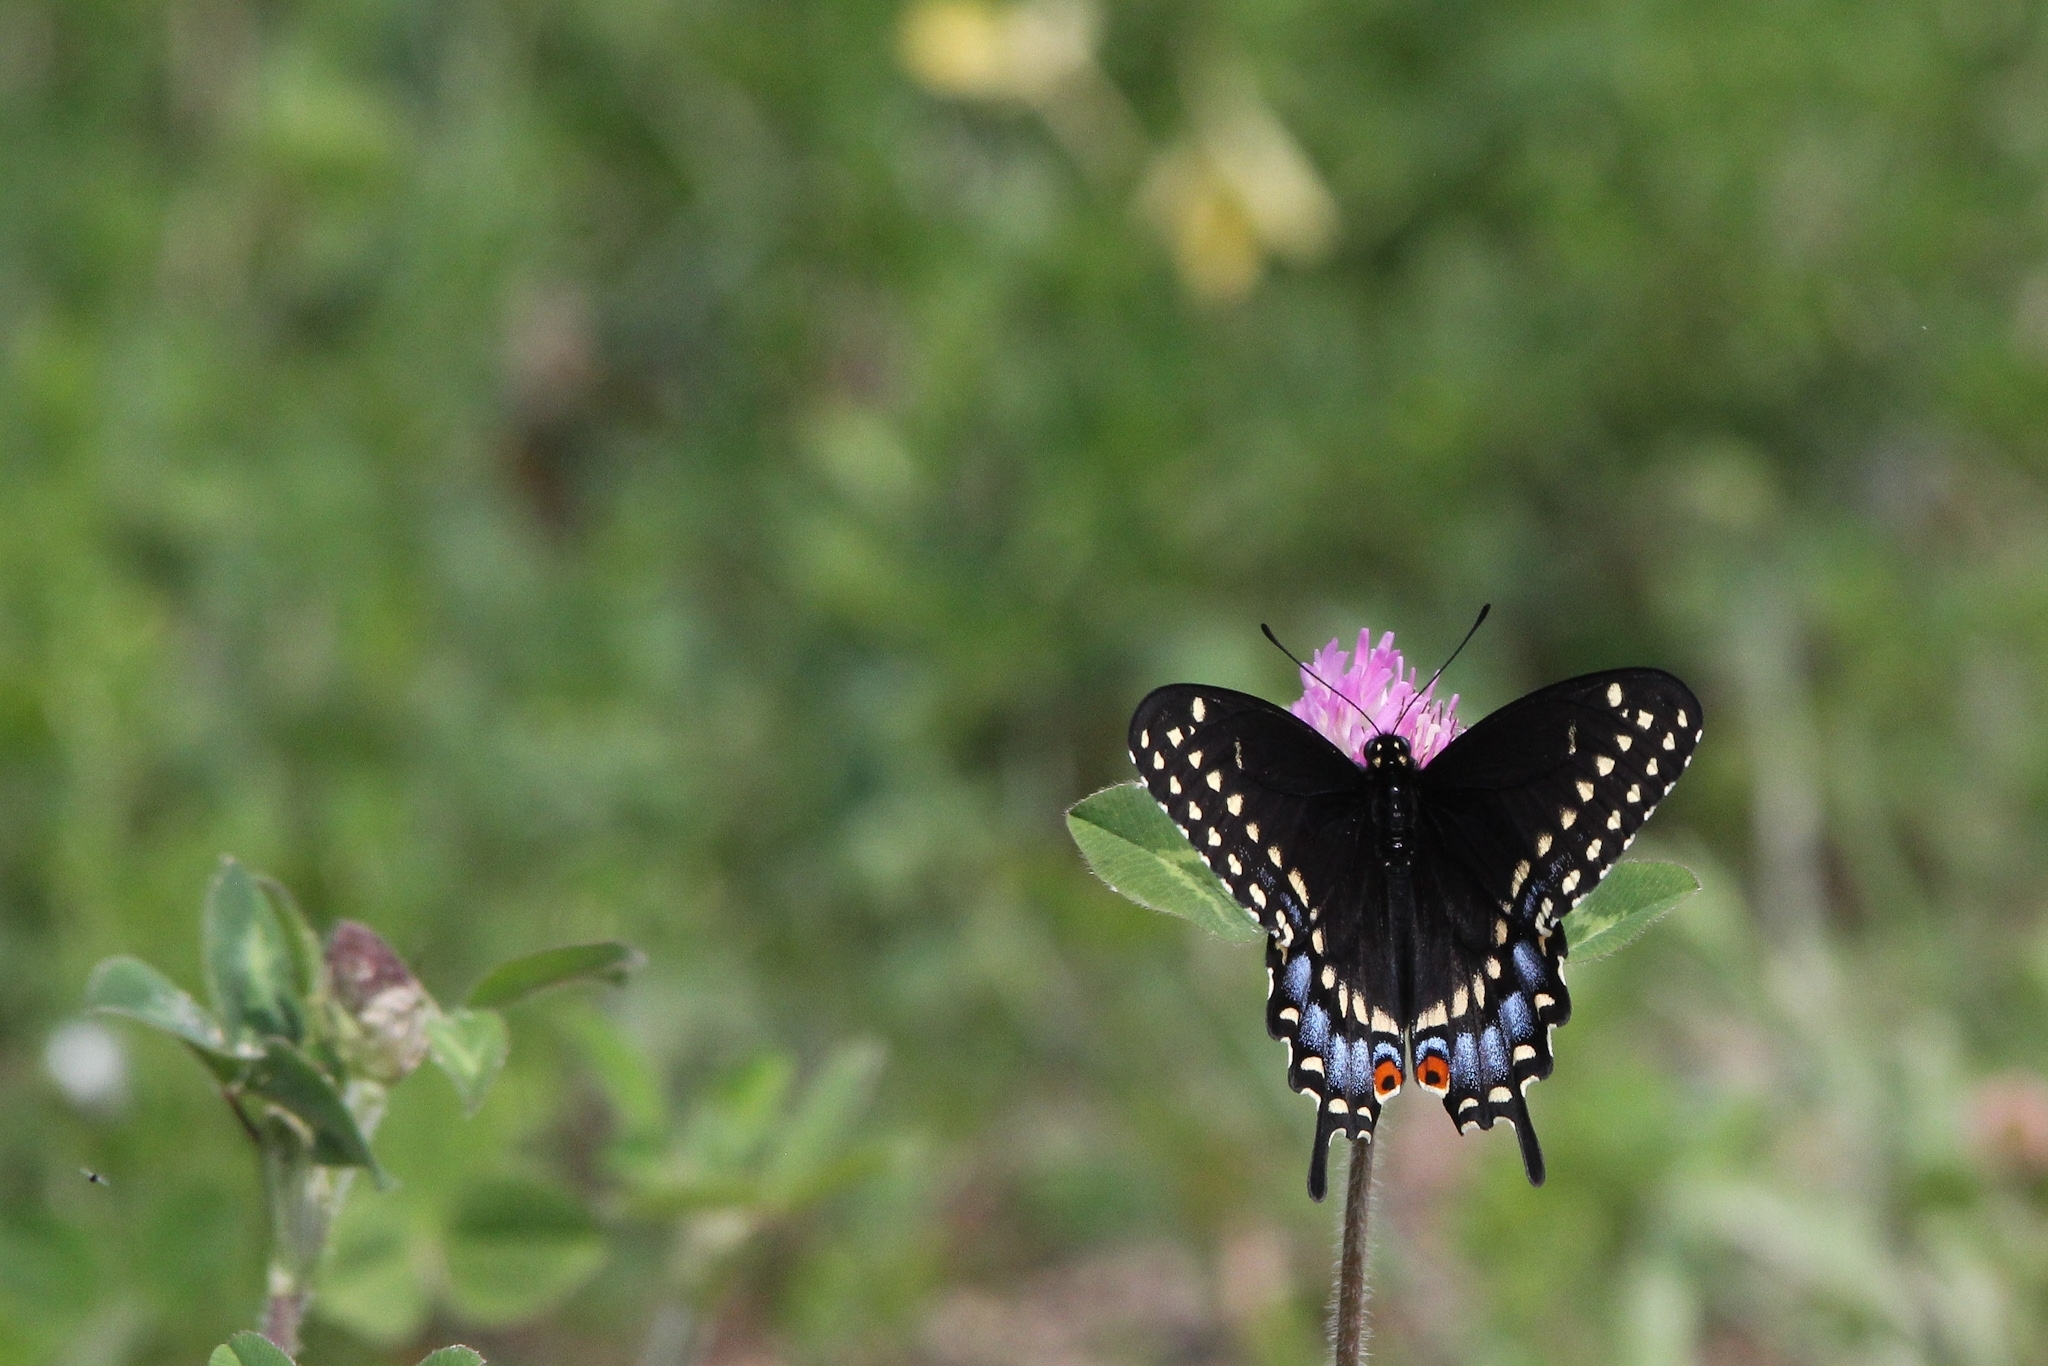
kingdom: Animalia
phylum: Arthropoda
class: Insecta
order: Lepidoptera
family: Papilionidae
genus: Papilio
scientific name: Papilio polyxenes
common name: Black swallowtail
